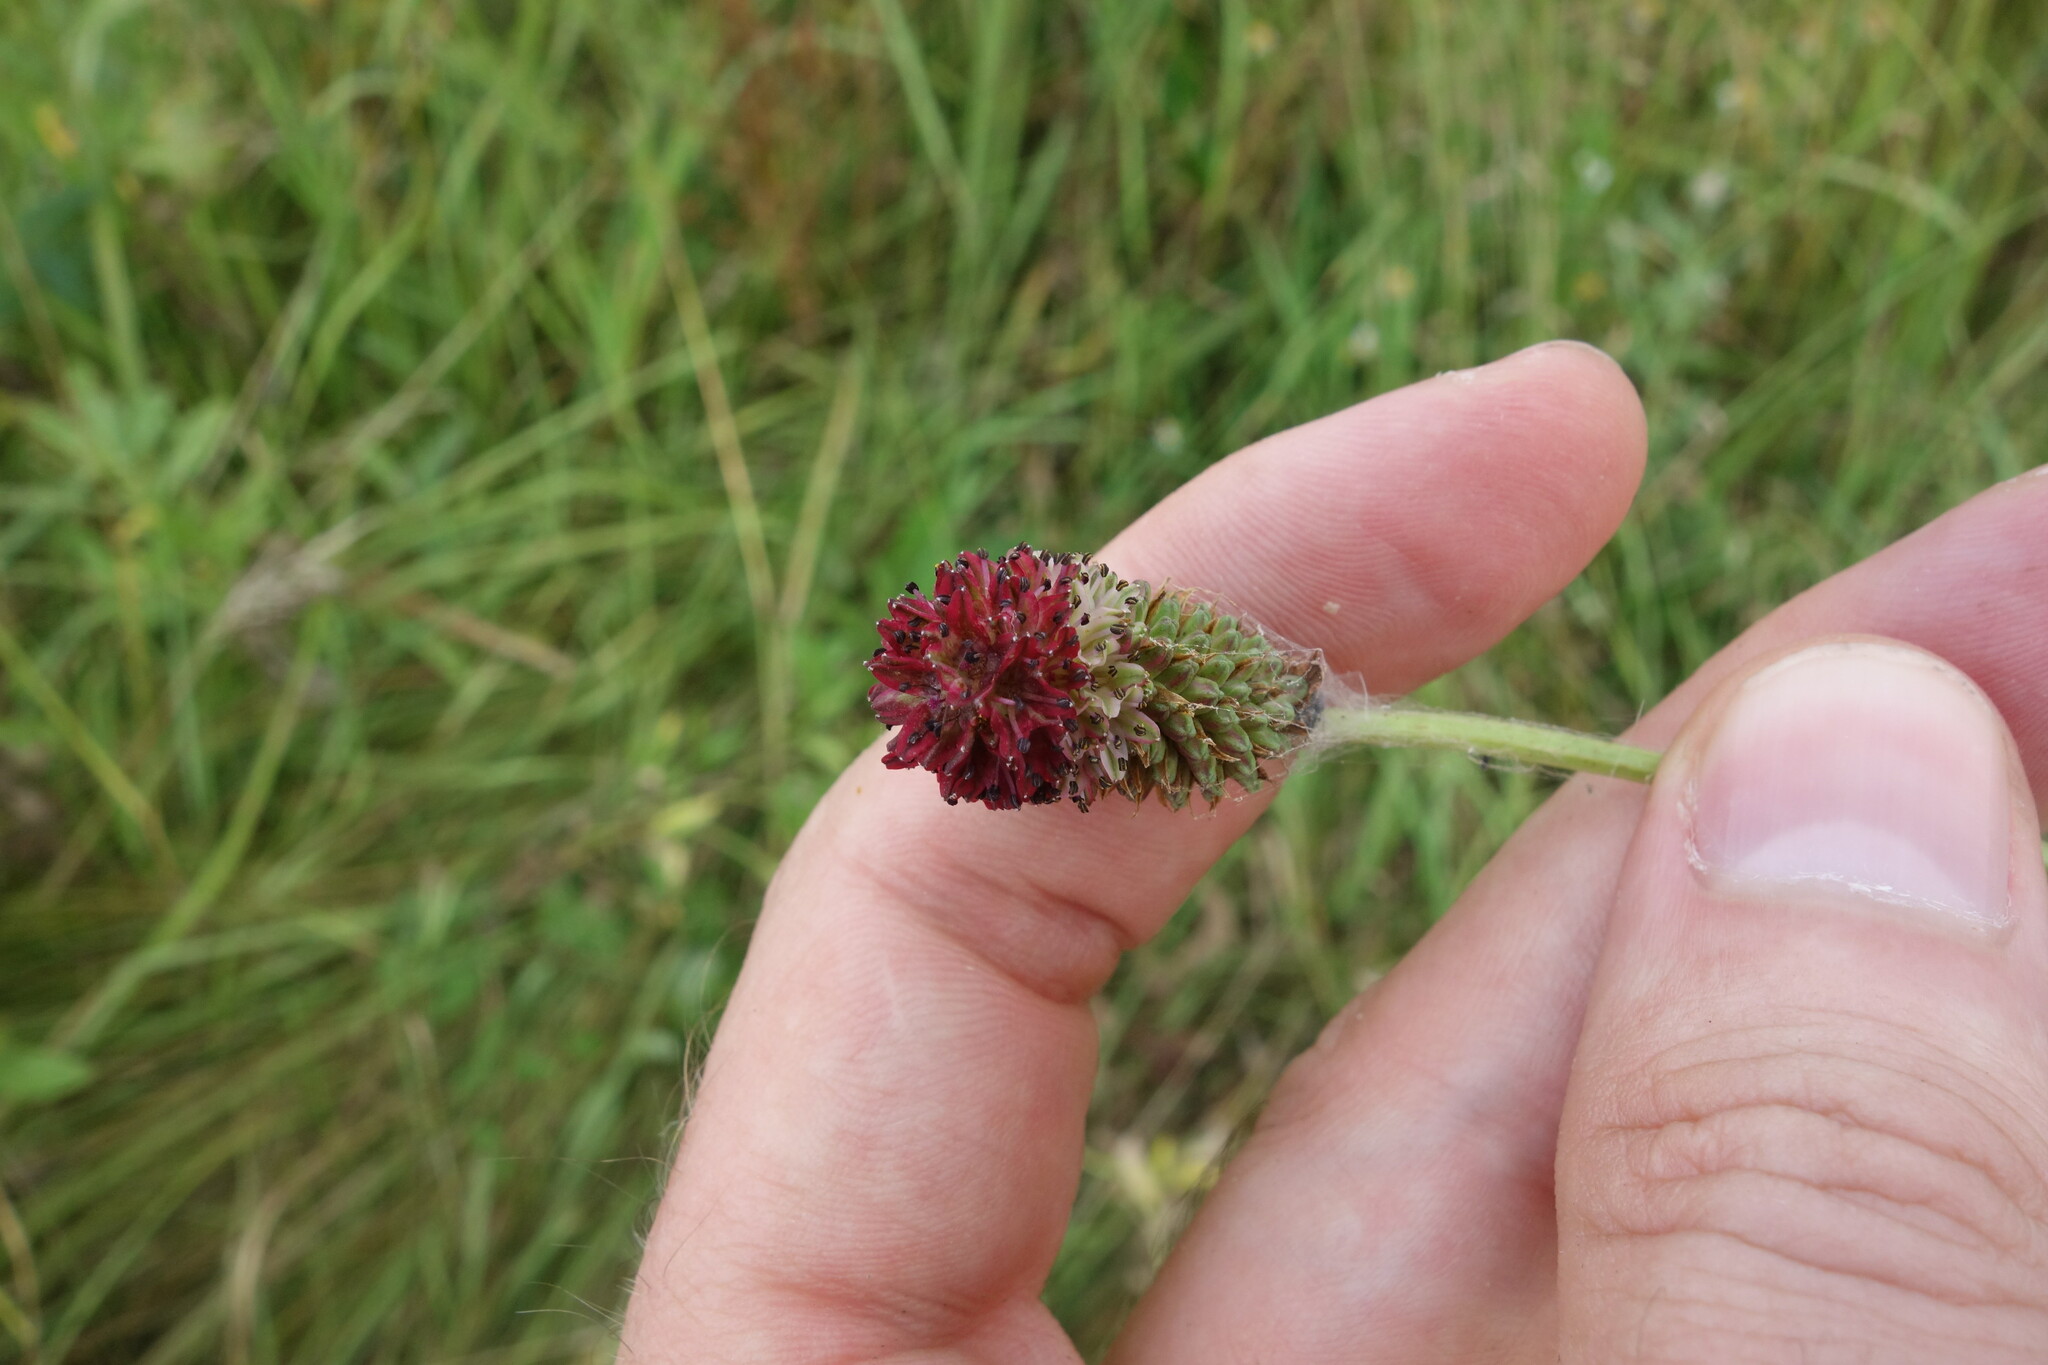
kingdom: Plantae
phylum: Tracheophyta
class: Magnoliopsida
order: Rosales
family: Rosaceae
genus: Sanguisorba
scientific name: Sanguisorba officinalis
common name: Great burnet
